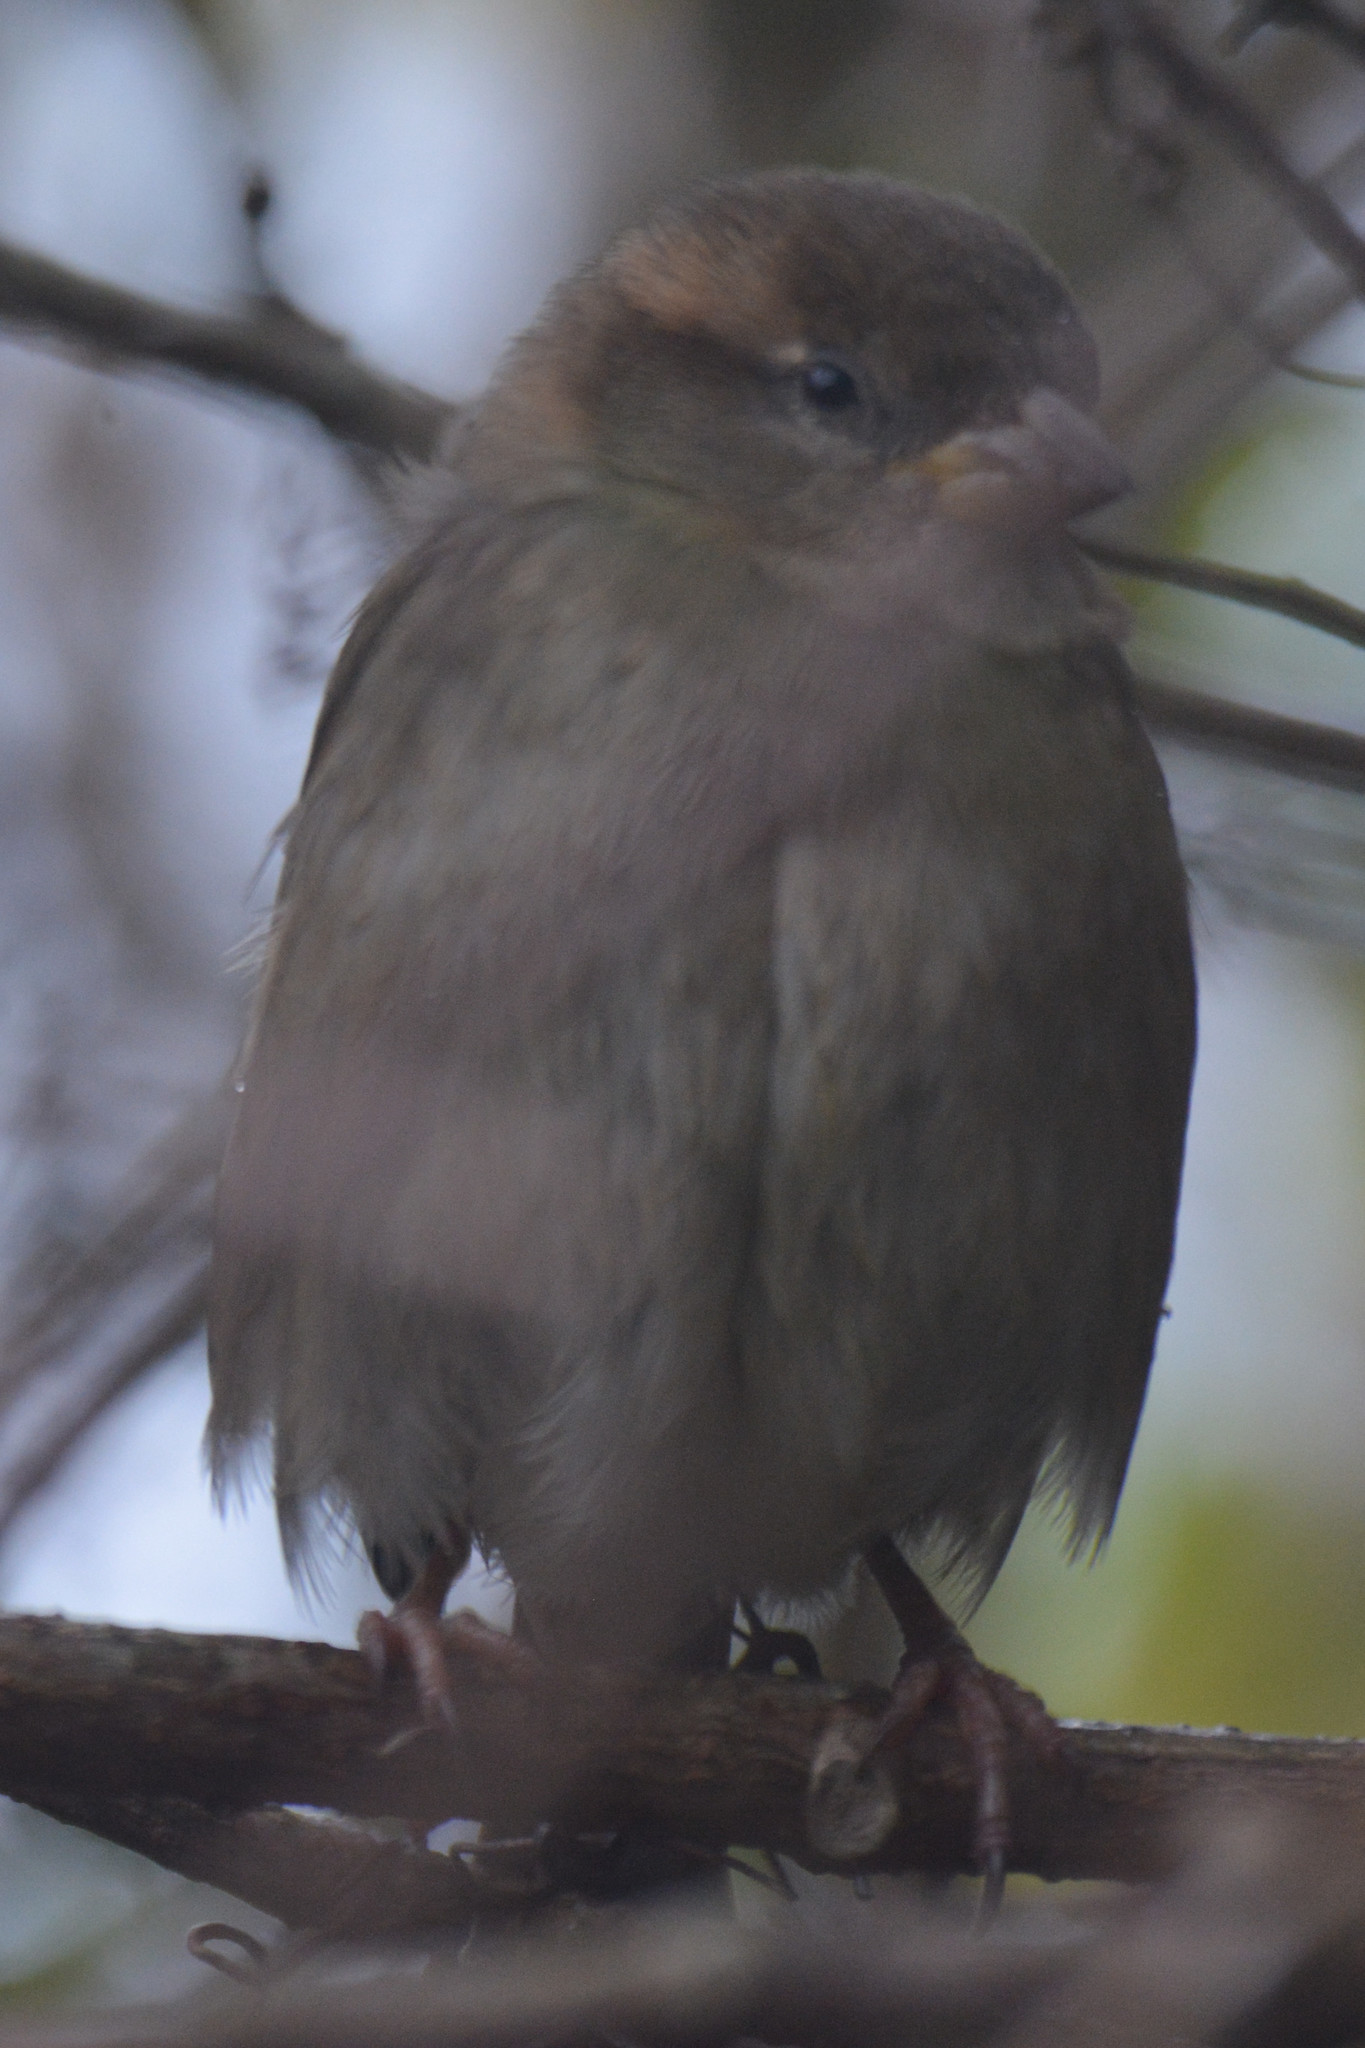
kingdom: Animalia
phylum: Chordata
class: Aves
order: Passeriformes
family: Passeridae
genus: Passer
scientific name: Passer domesticus
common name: House sparrow
